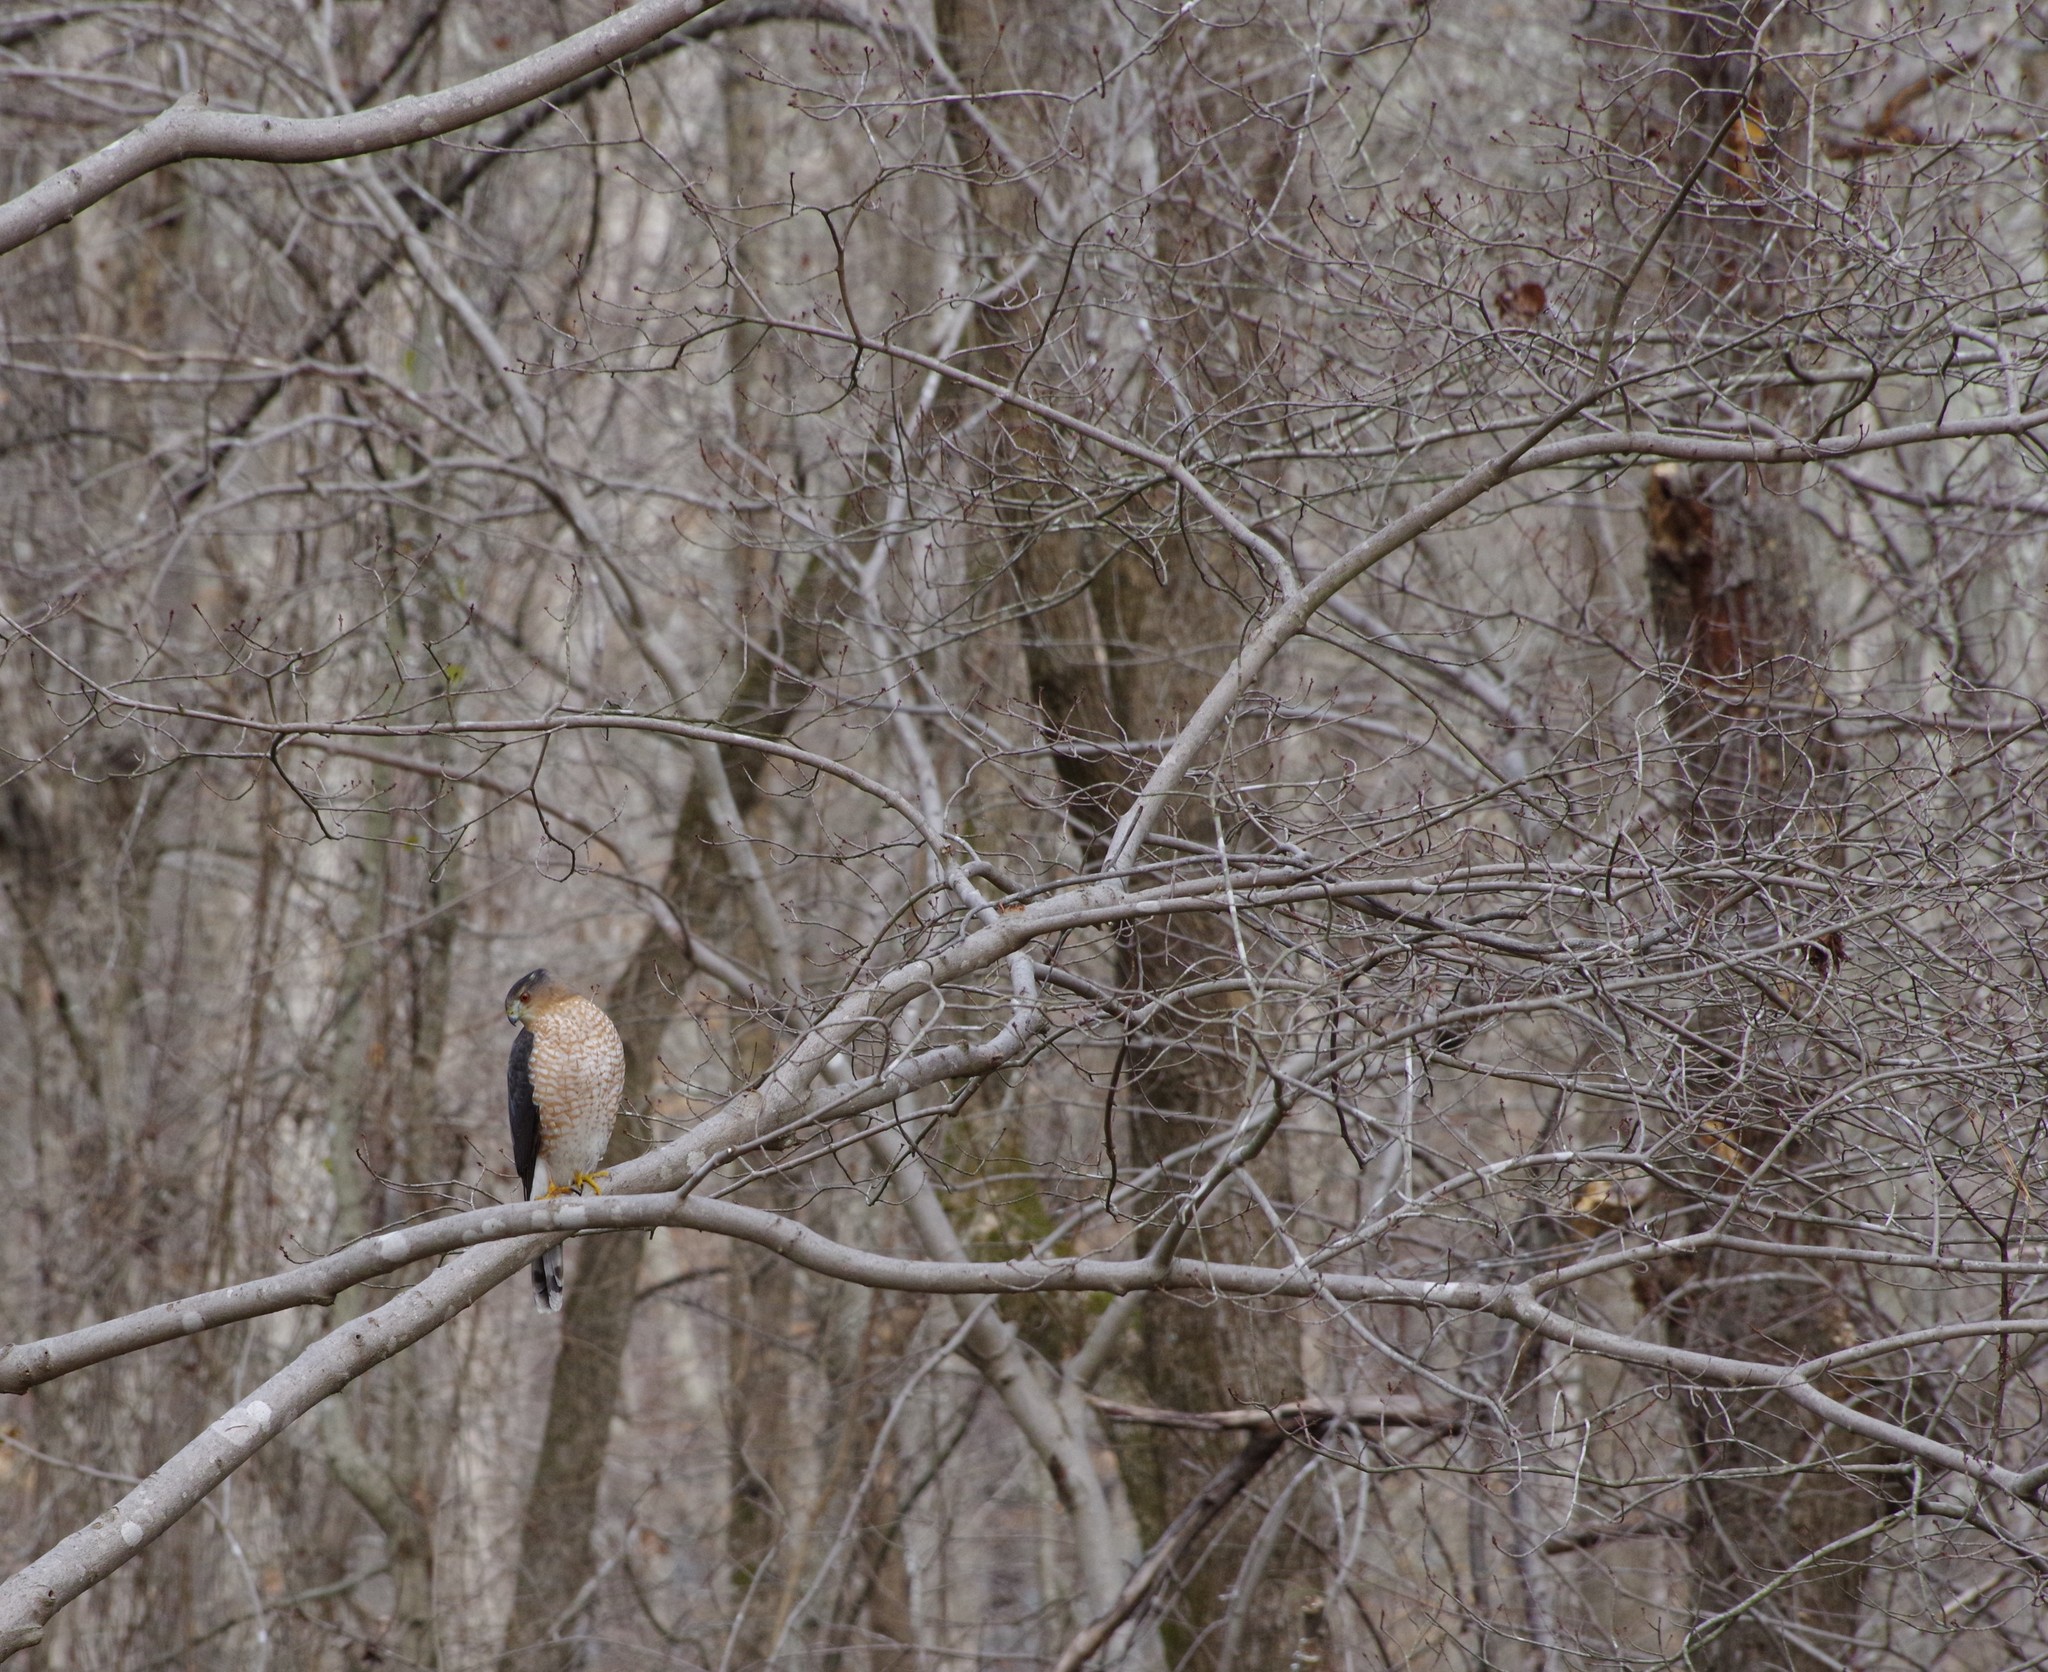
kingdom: Animalia
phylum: Chordata
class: Aves
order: Accipitriformes
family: Accipitridae
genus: Accipiter
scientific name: Accipiter cooperii
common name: Cooper's hawk
